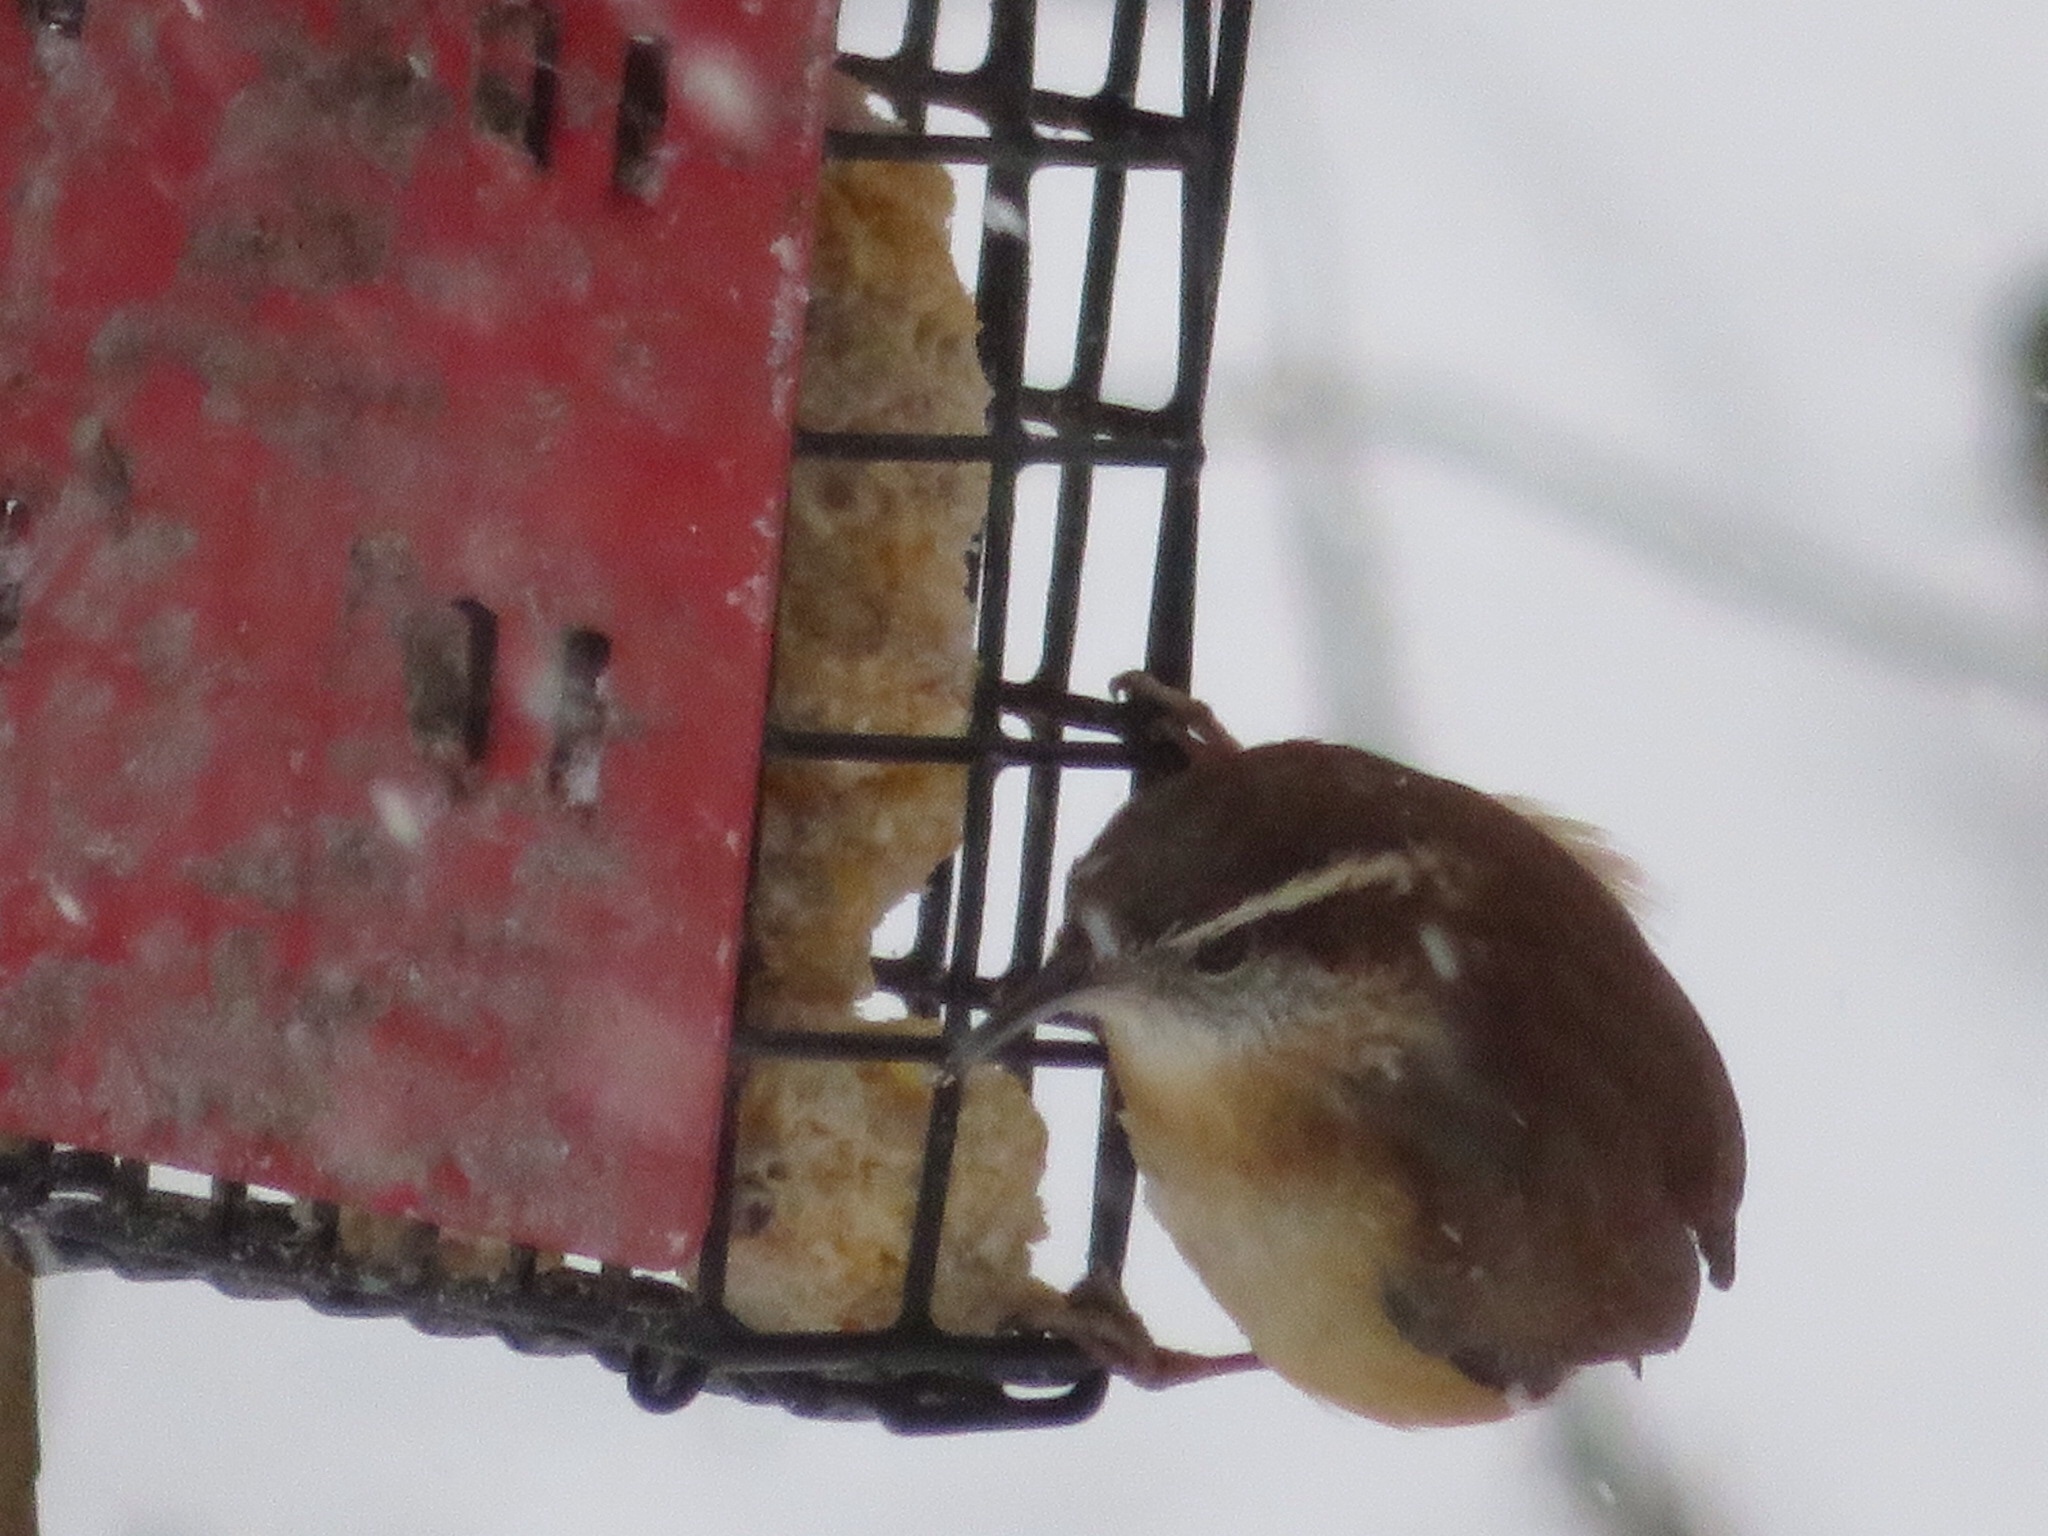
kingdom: Animalia
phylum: Chordata
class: Aves
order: Passeriformes
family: Troglodytidae
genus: Thryothorus
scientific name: Thryothorus ludovicianus
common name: Carolina wren
